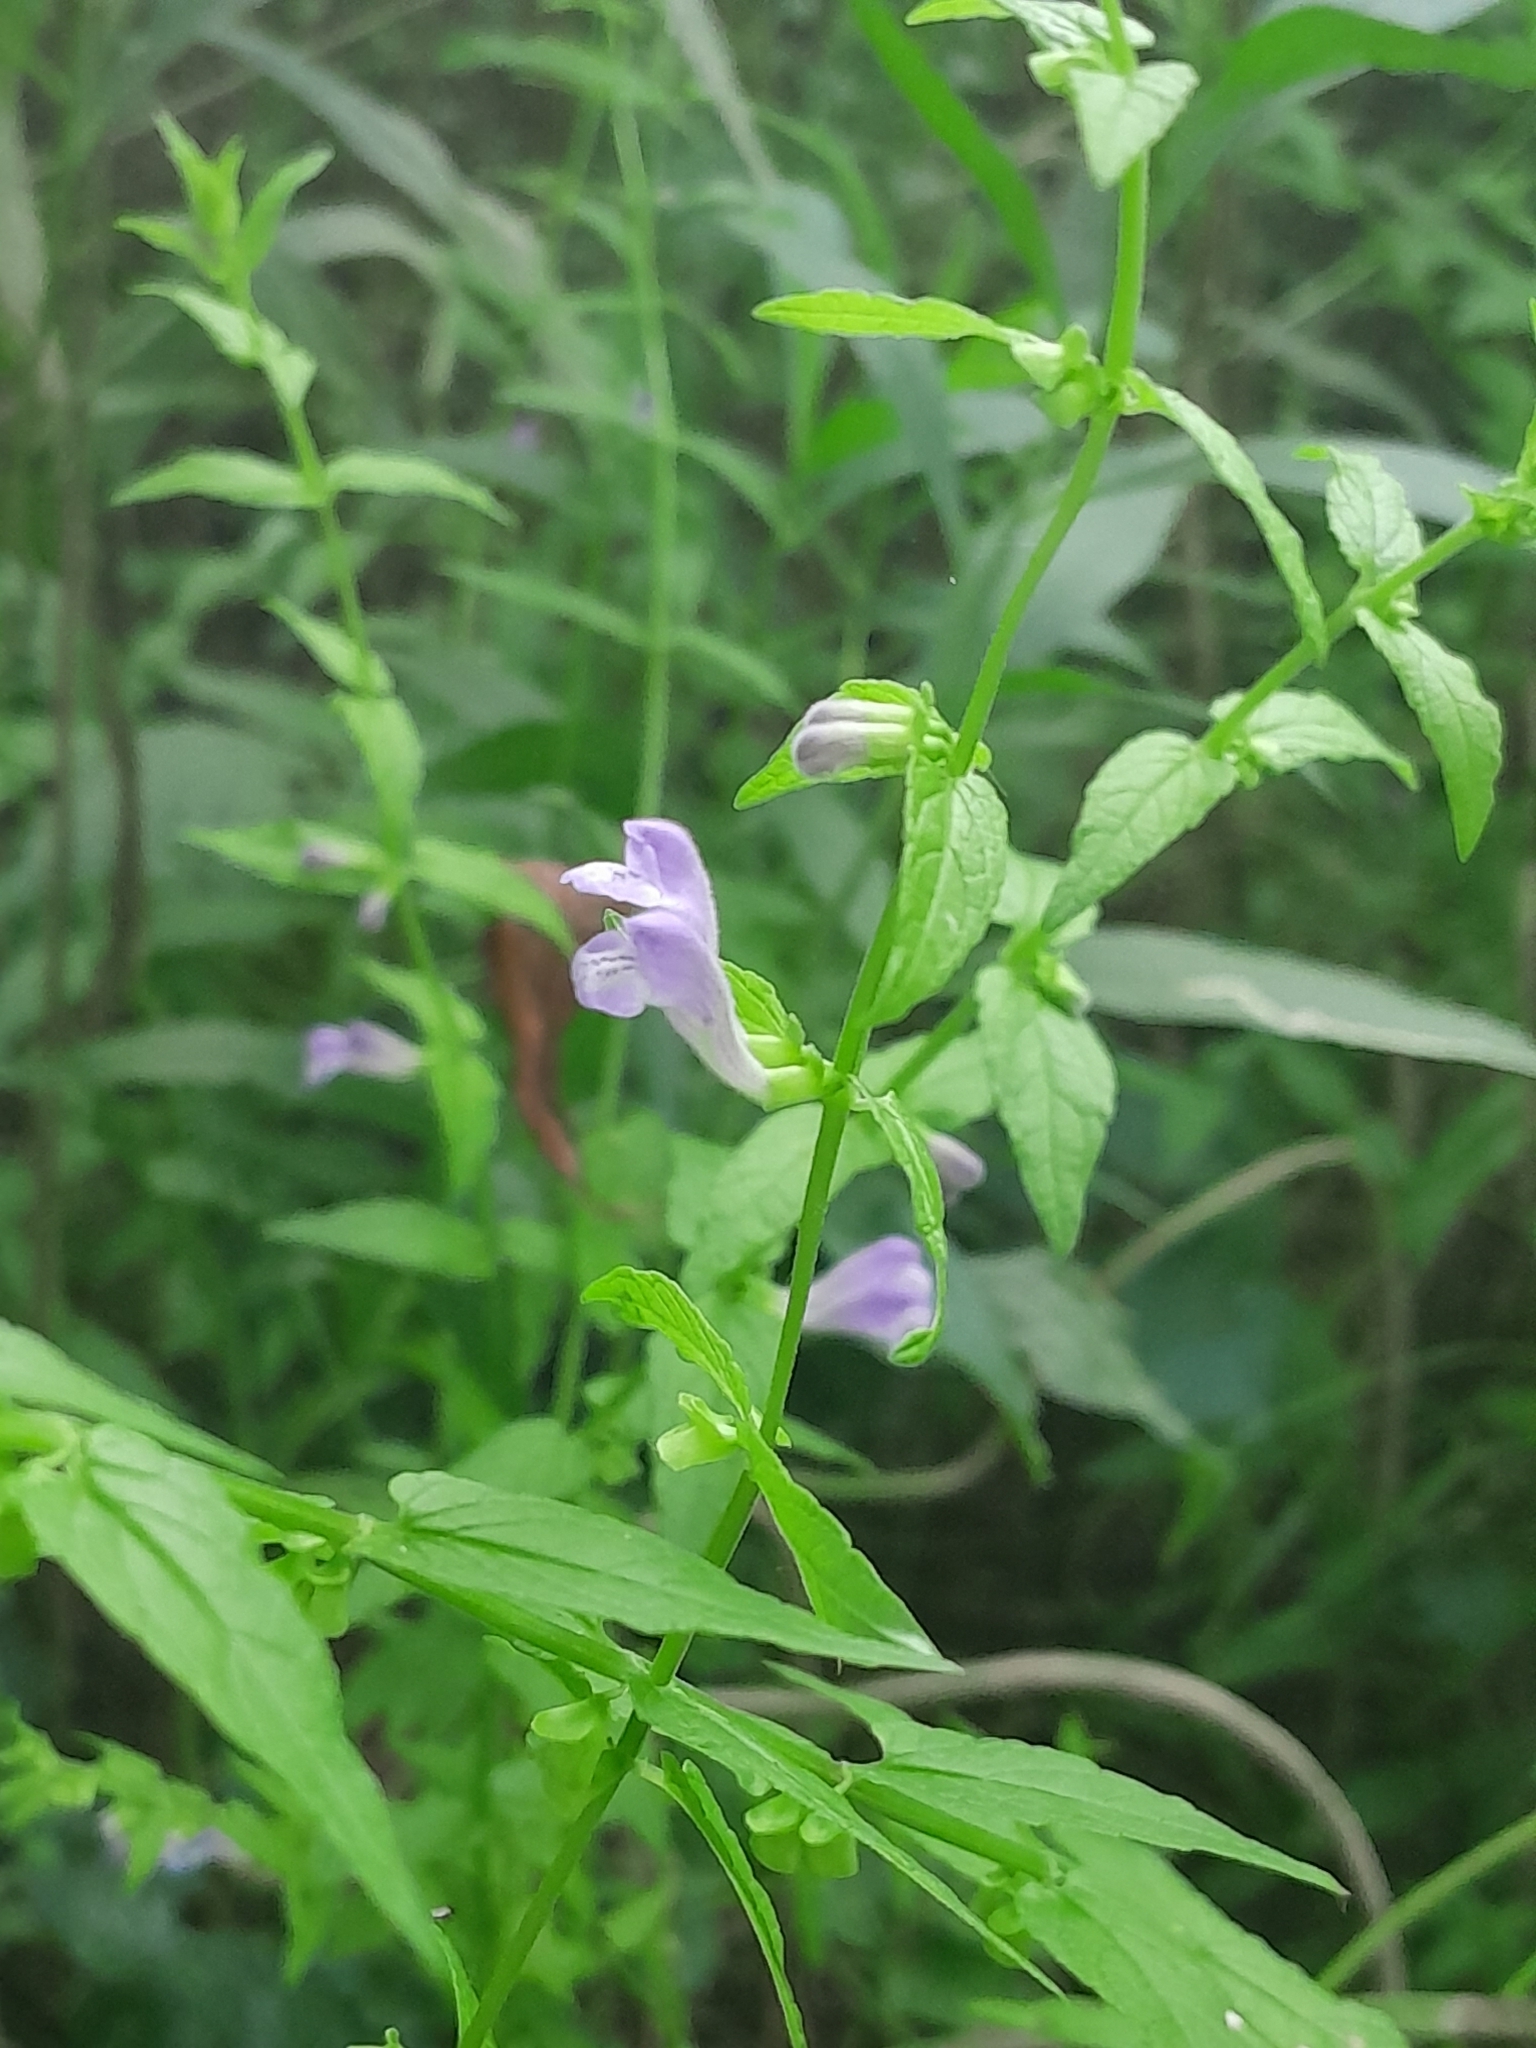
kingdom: Plantae
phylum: Tracheophyta
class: Magnoliopsida
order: Lamiales
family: Lamiaceae
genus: Scutellaria
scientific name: Scutellaria galericulata
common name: Skullcap
